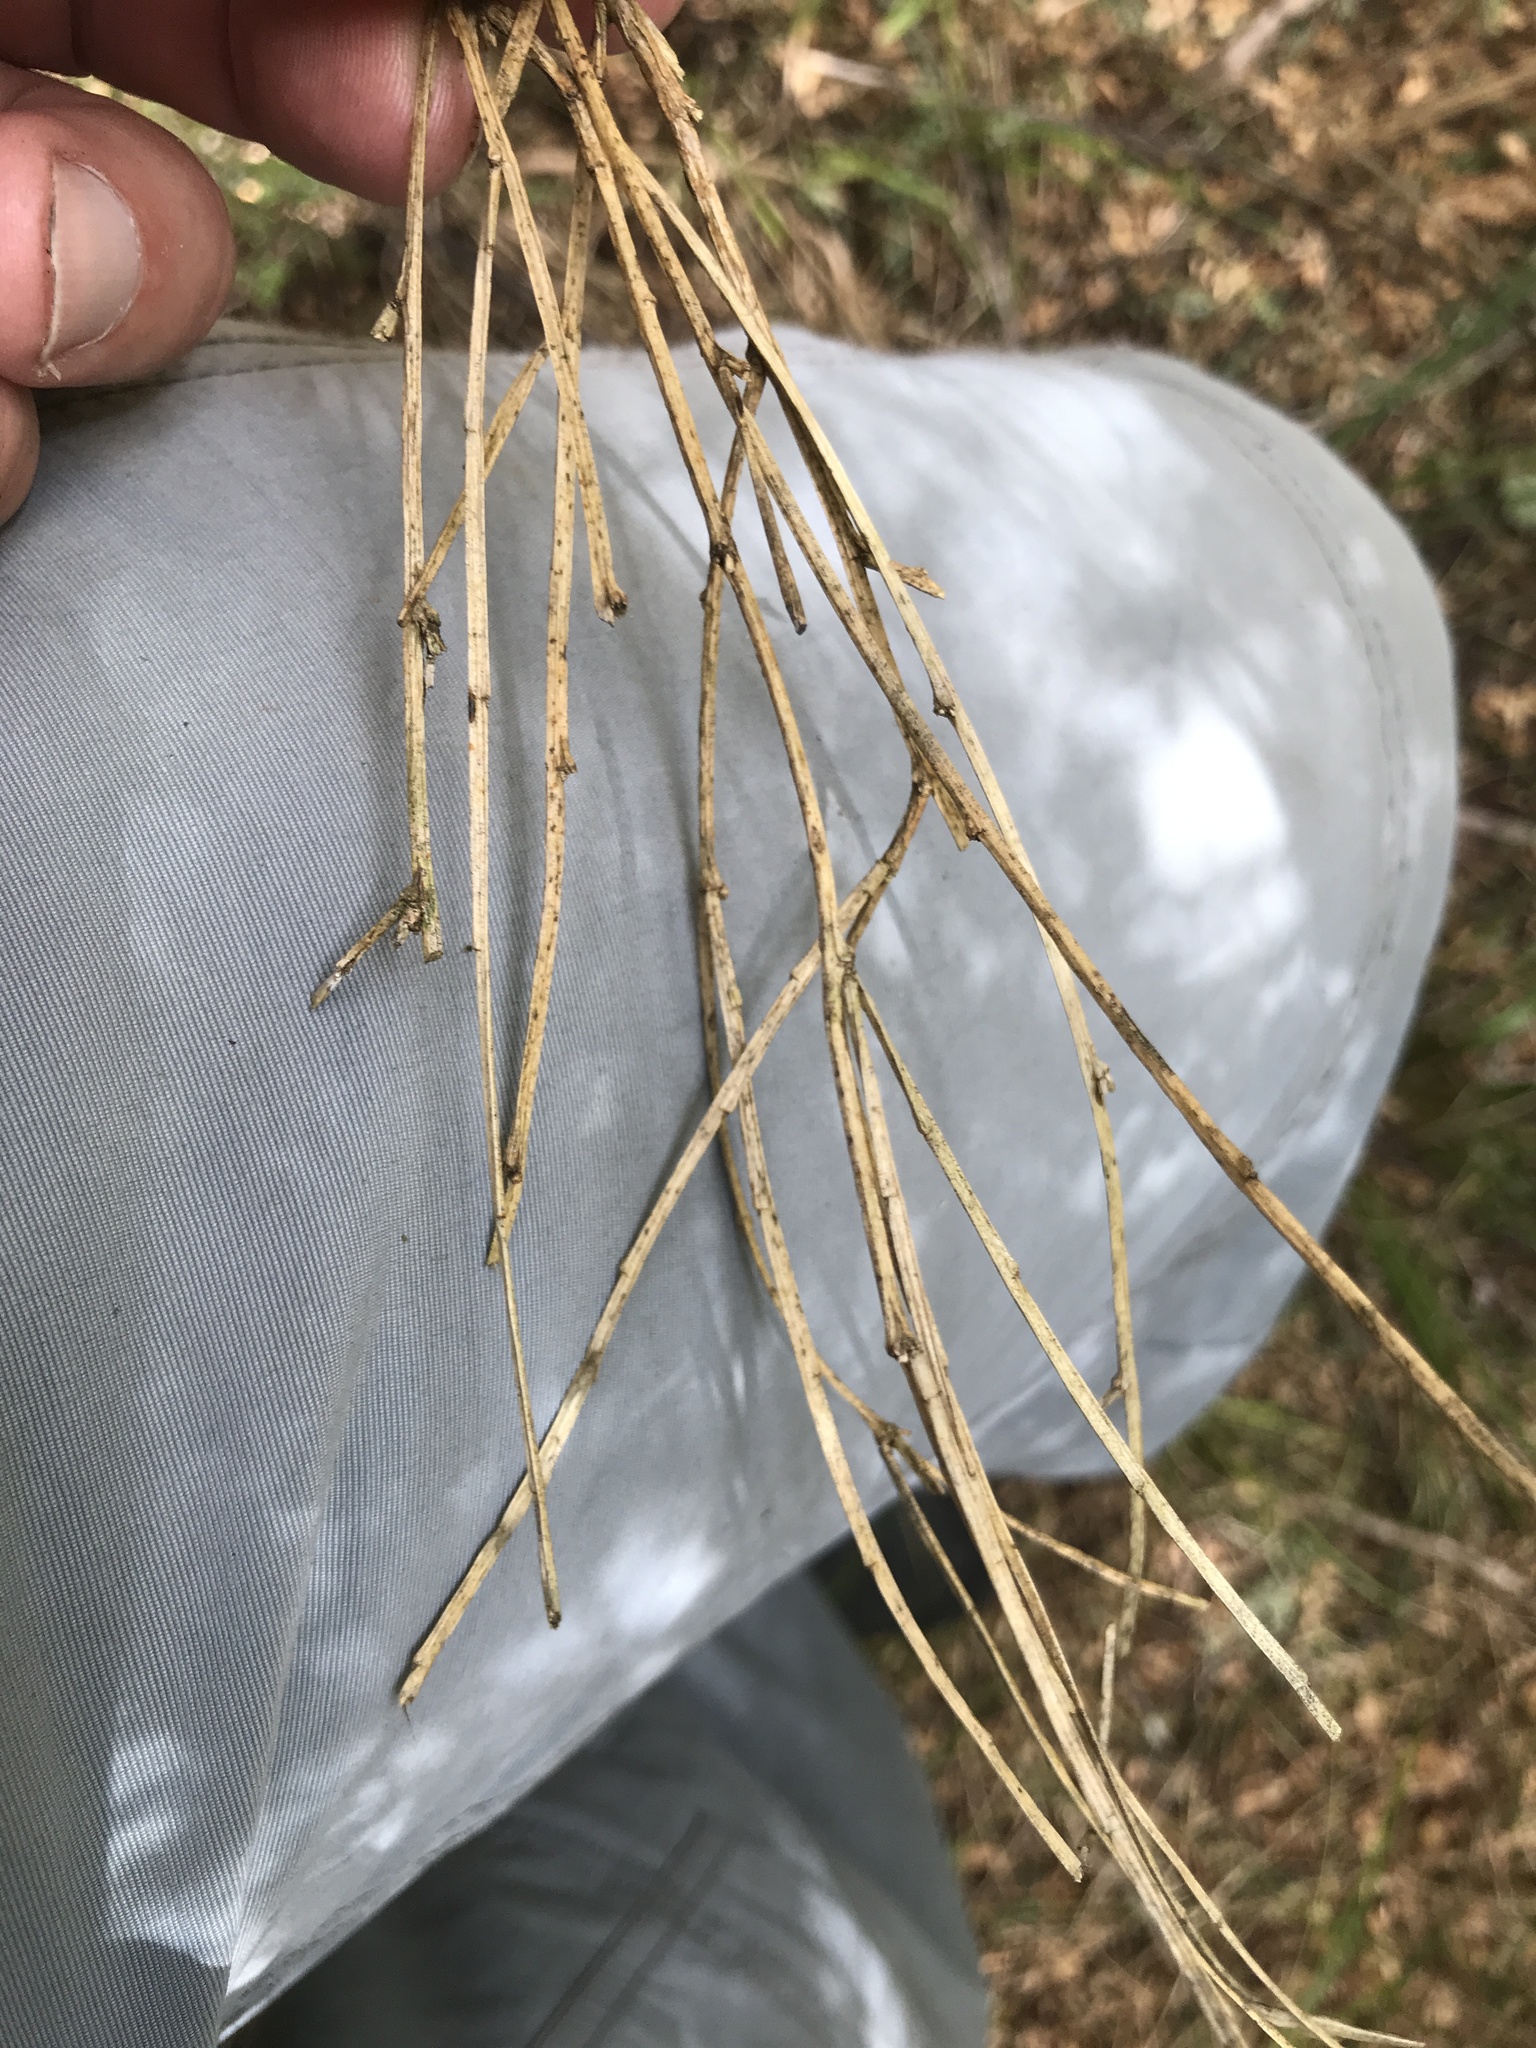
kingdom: Plantae
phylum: Tracheophyta
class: Magnoliopsida
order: Fabales
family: Fabaceae
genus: Carmichaelia
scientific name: Carmichaelia australis
